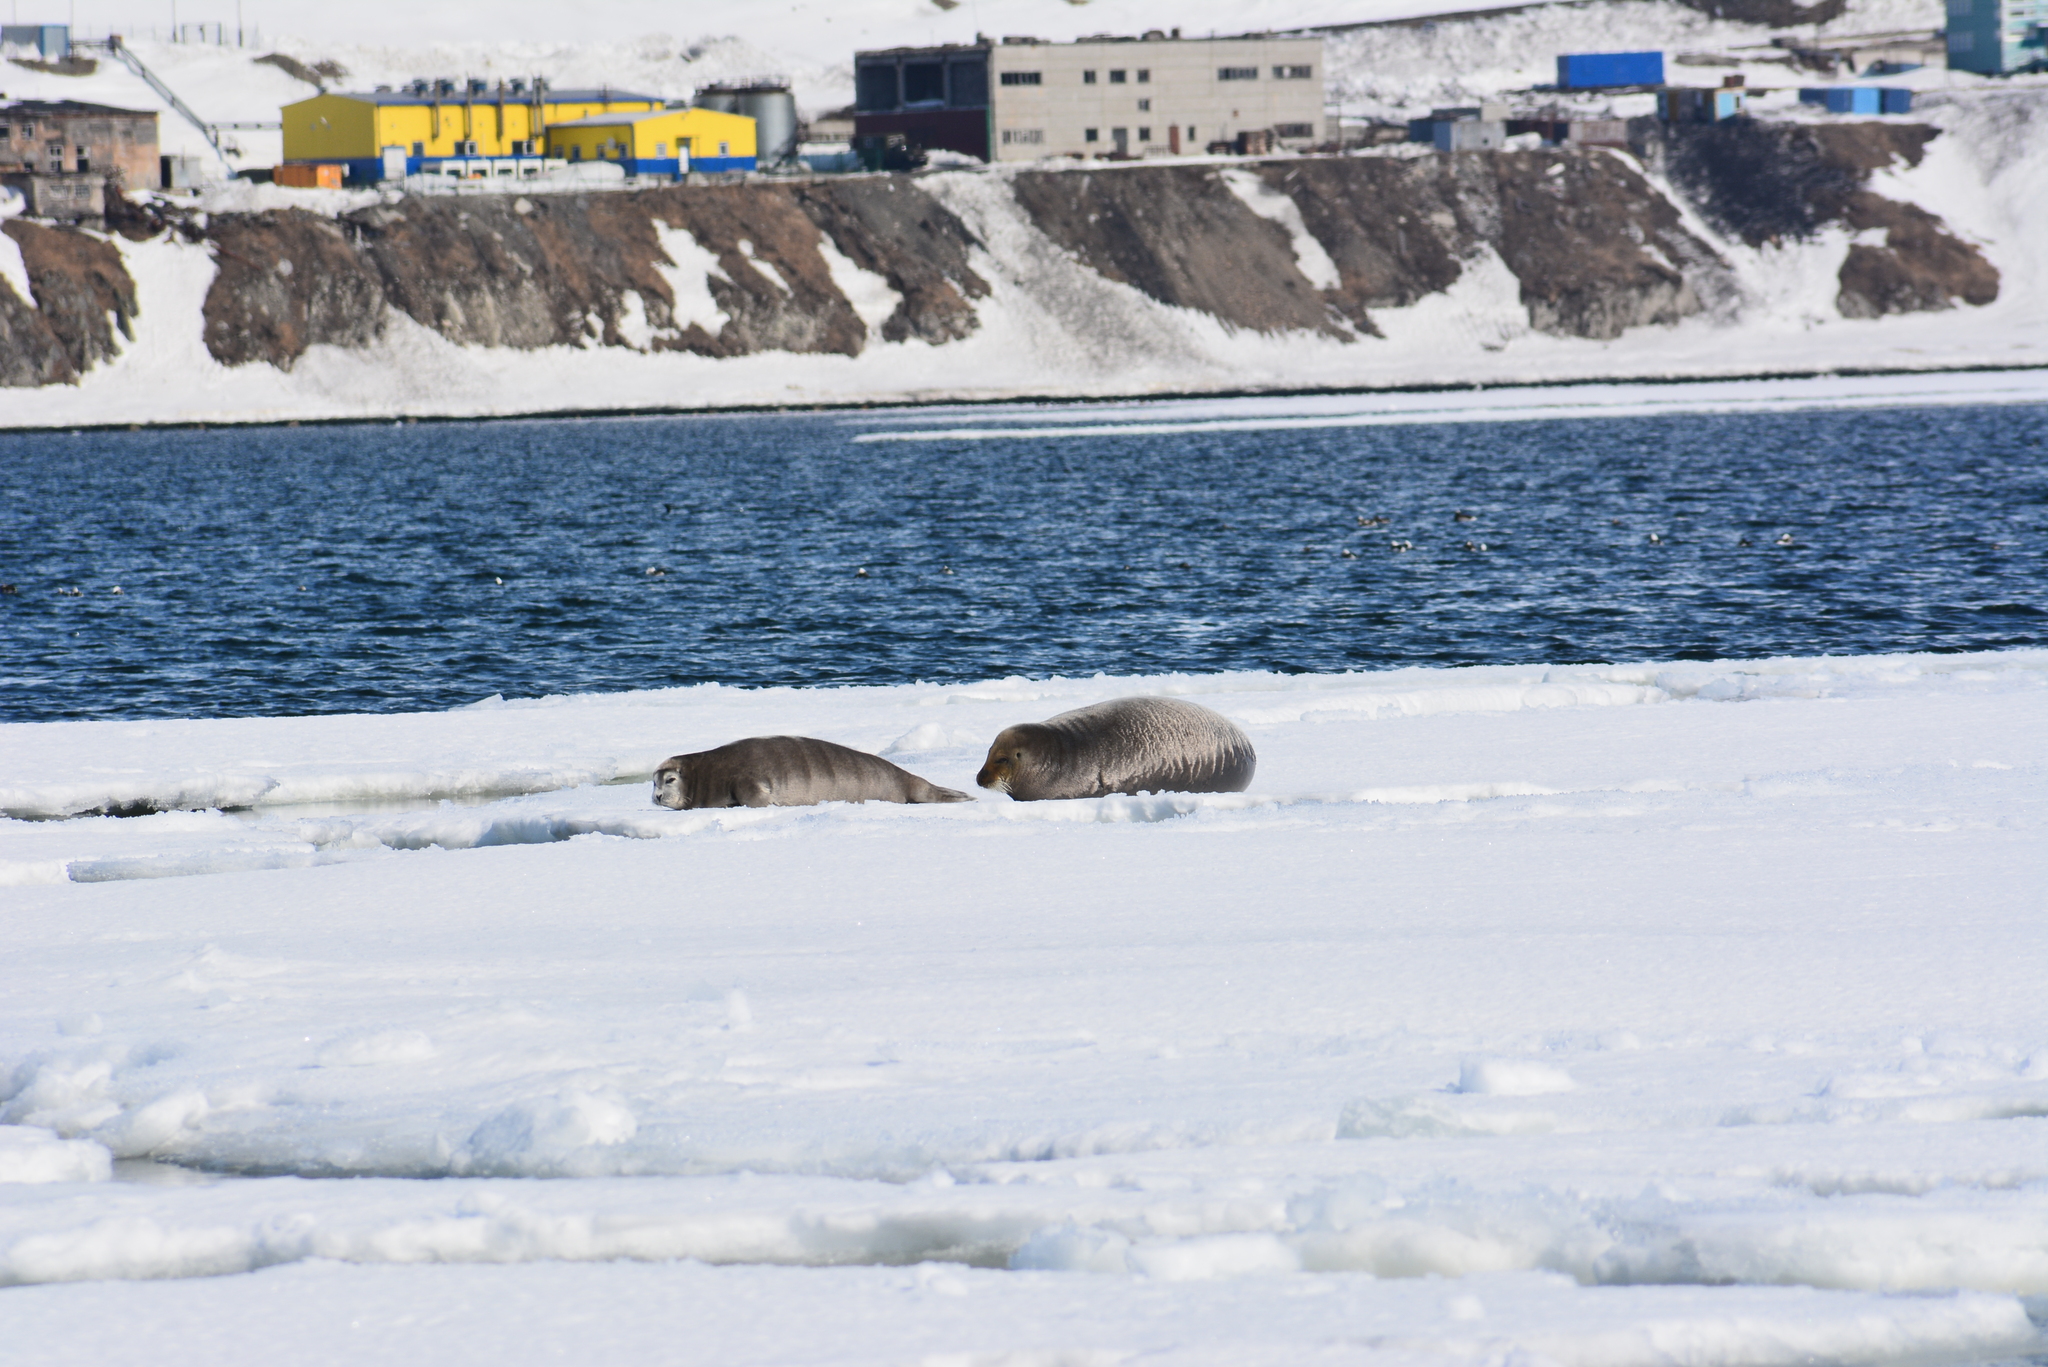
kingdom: Animalia
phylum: Chordata
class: Mammalia
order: Carnivora
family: Phocidae
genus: Erignathus
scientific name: Erignathus barbatus
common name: Bearded seal
